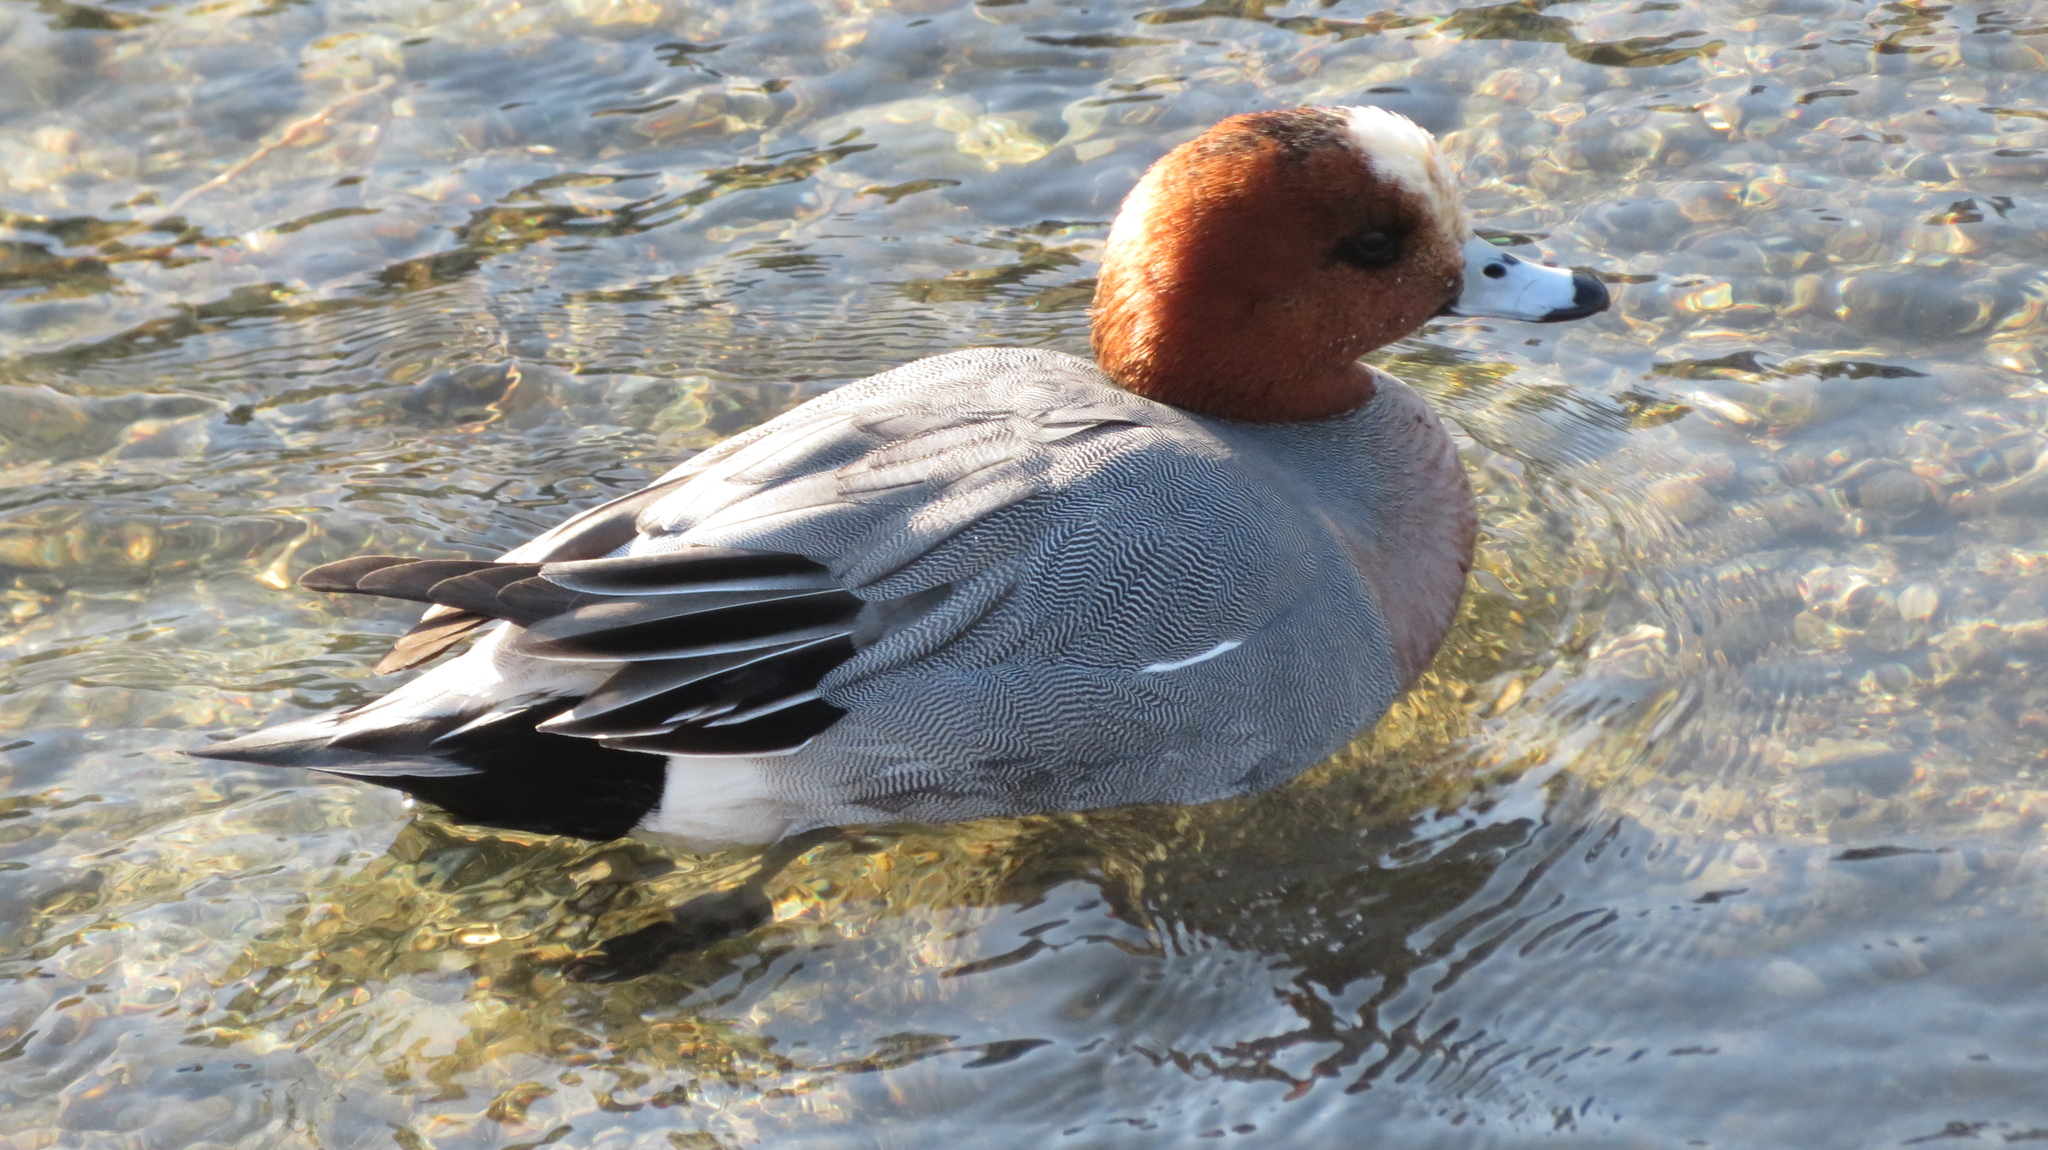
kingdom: Animalia
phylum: Chordata
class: Aves
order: Anseriformes
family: Anatidae
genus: Mareca
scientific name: Mareca penelope
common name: Eurasian wigeon
